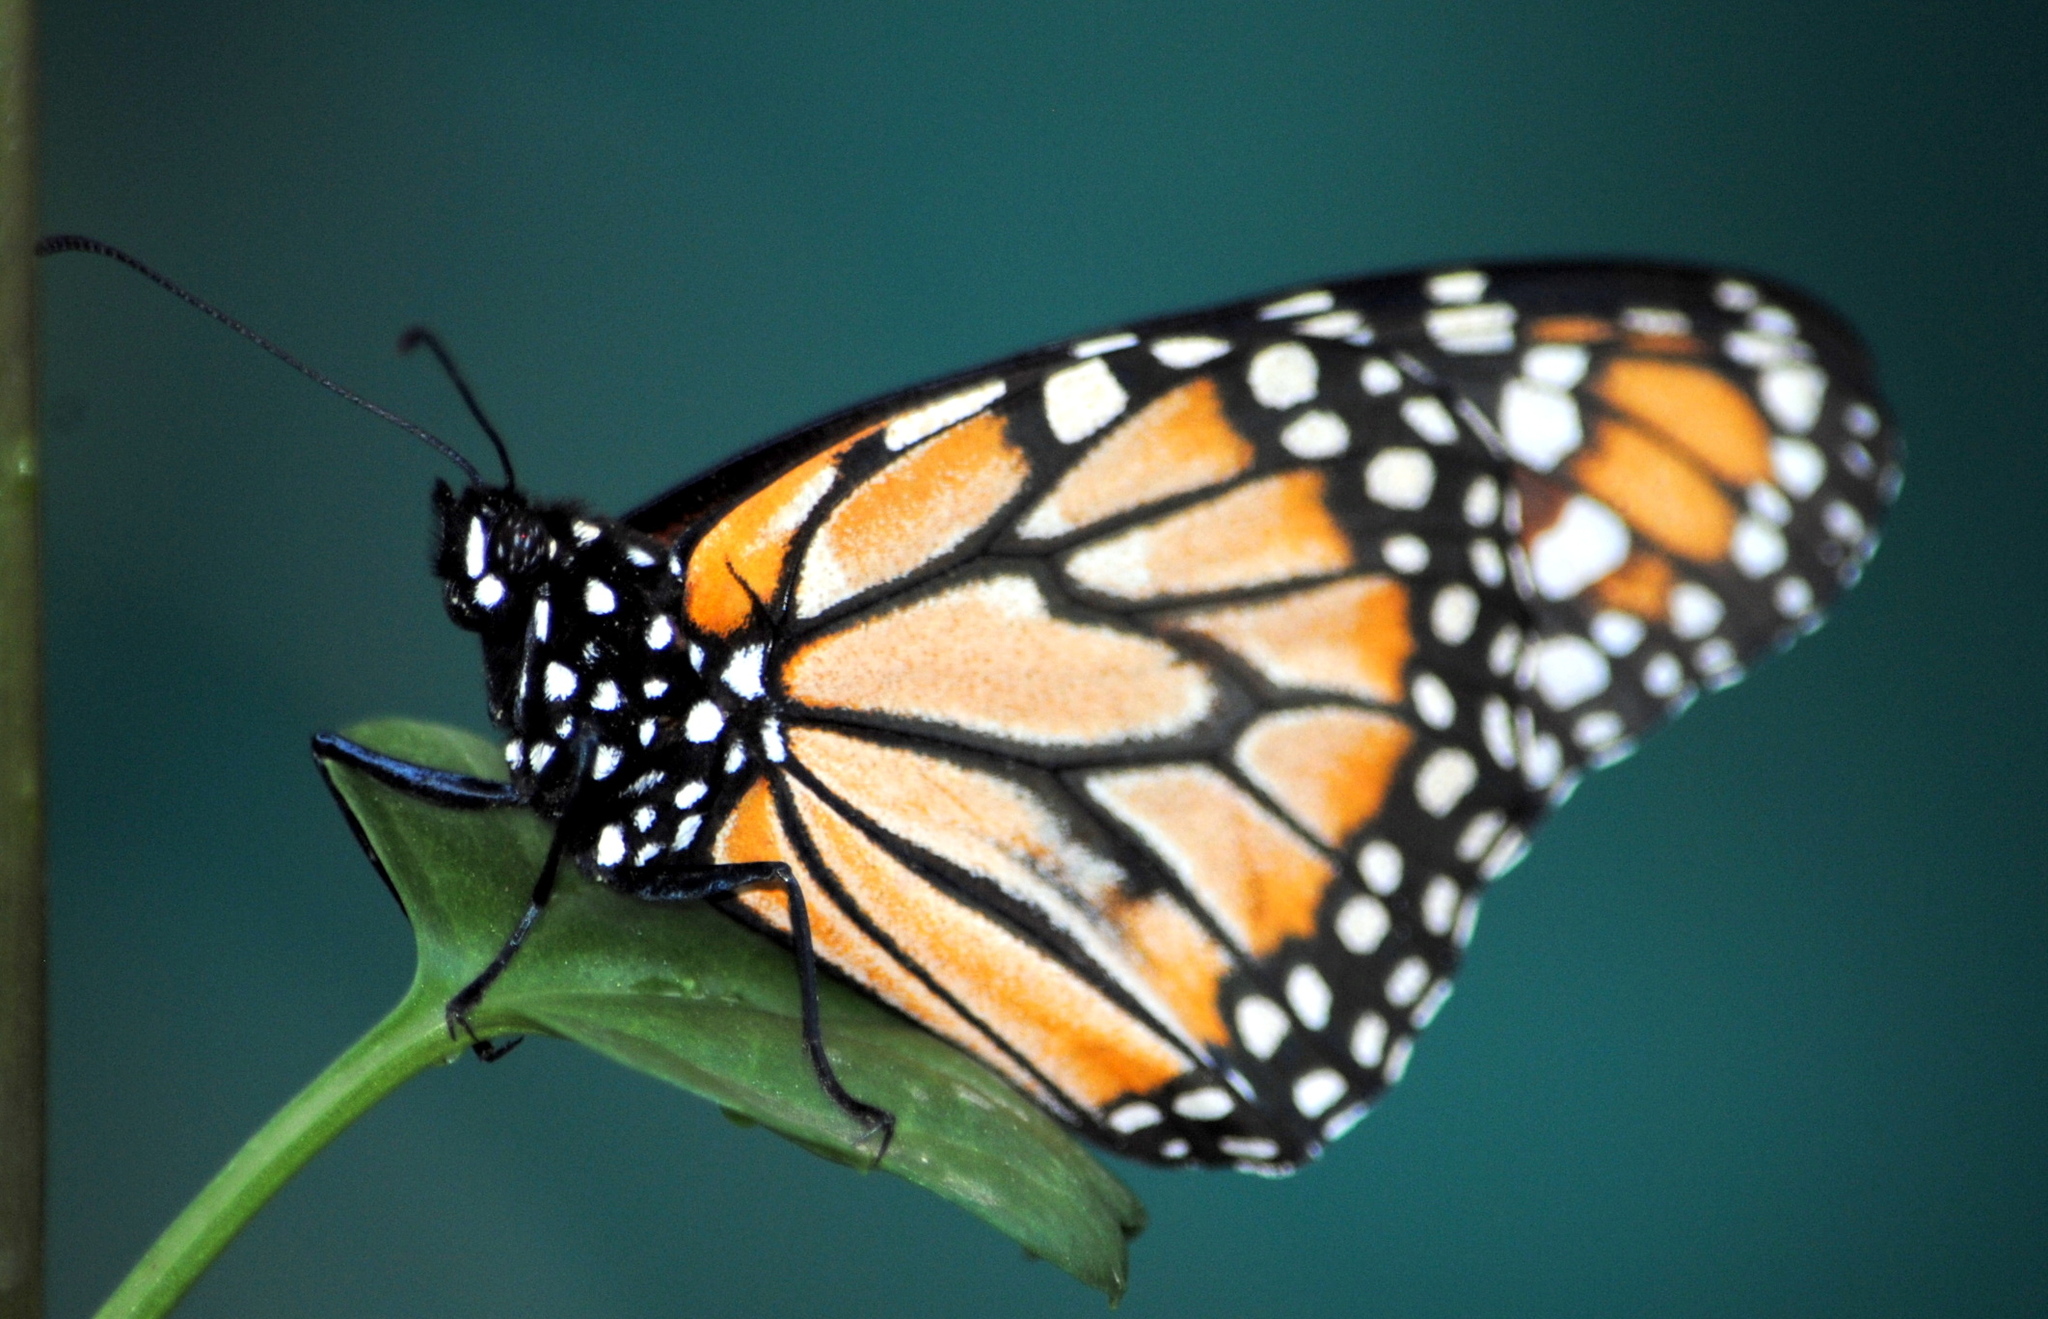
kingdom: Animalia
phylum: Arthropoda
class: Insecta
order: Lepidoptera
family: Nymphalidae
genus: Danaus
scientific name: Danaus erippus
